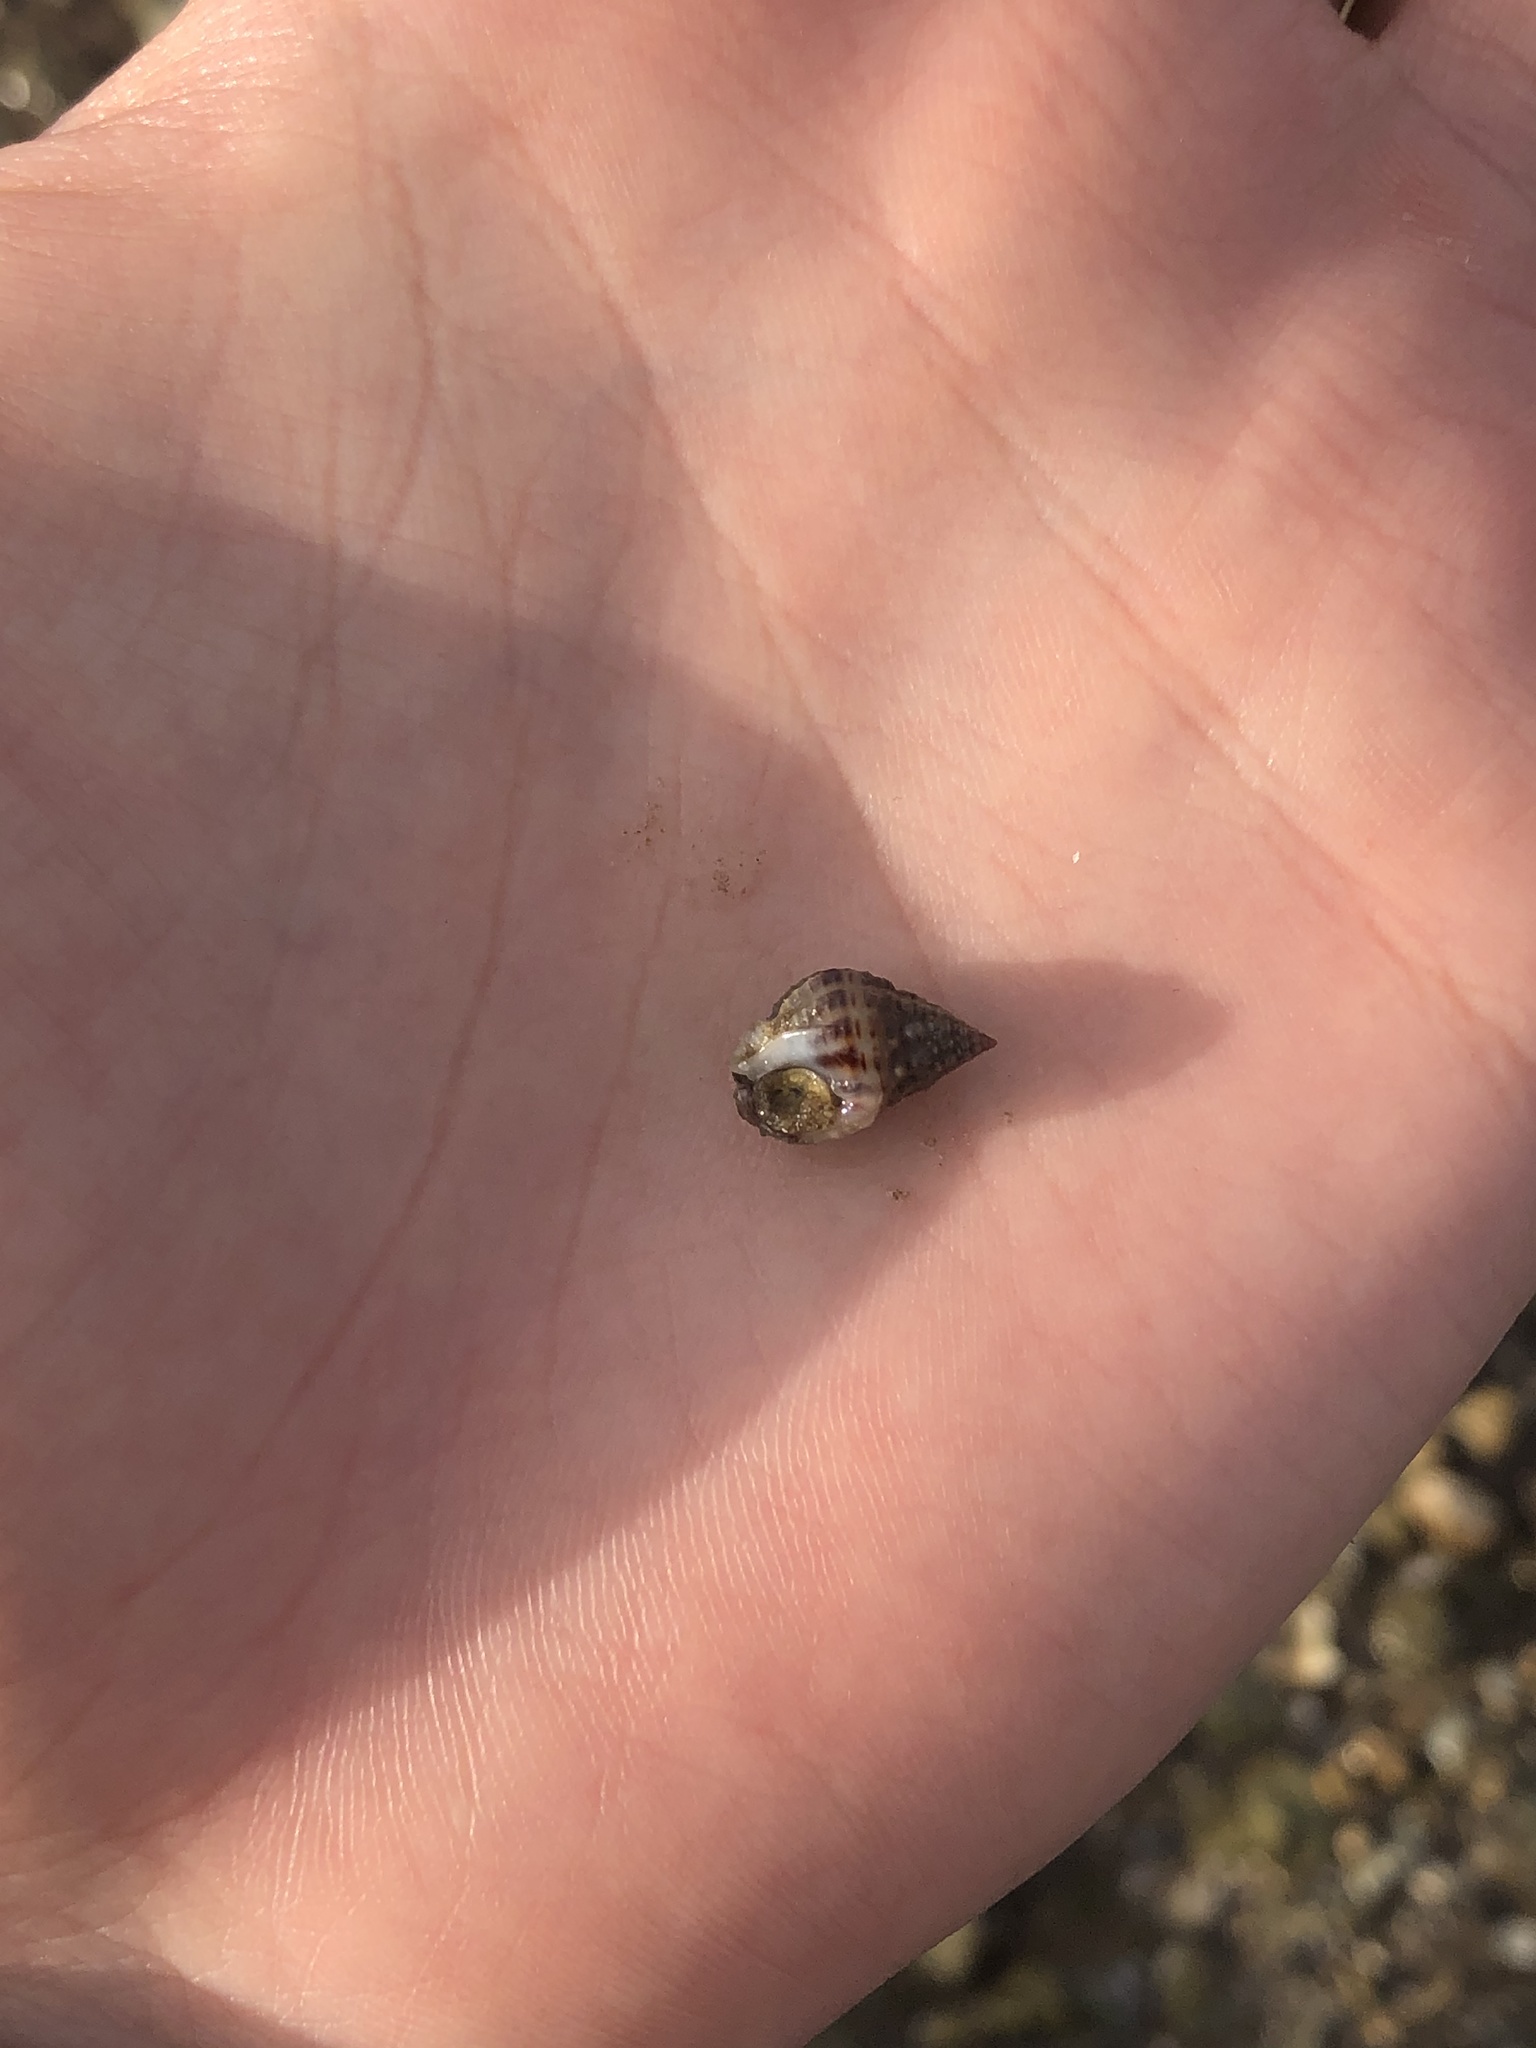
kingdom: Animalia
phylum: Mollusca
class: Gastropoda
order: Neogastropoda
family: Nassariidae
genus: Phrontis
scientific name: Phrontis vibex
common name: Bruised nassa
